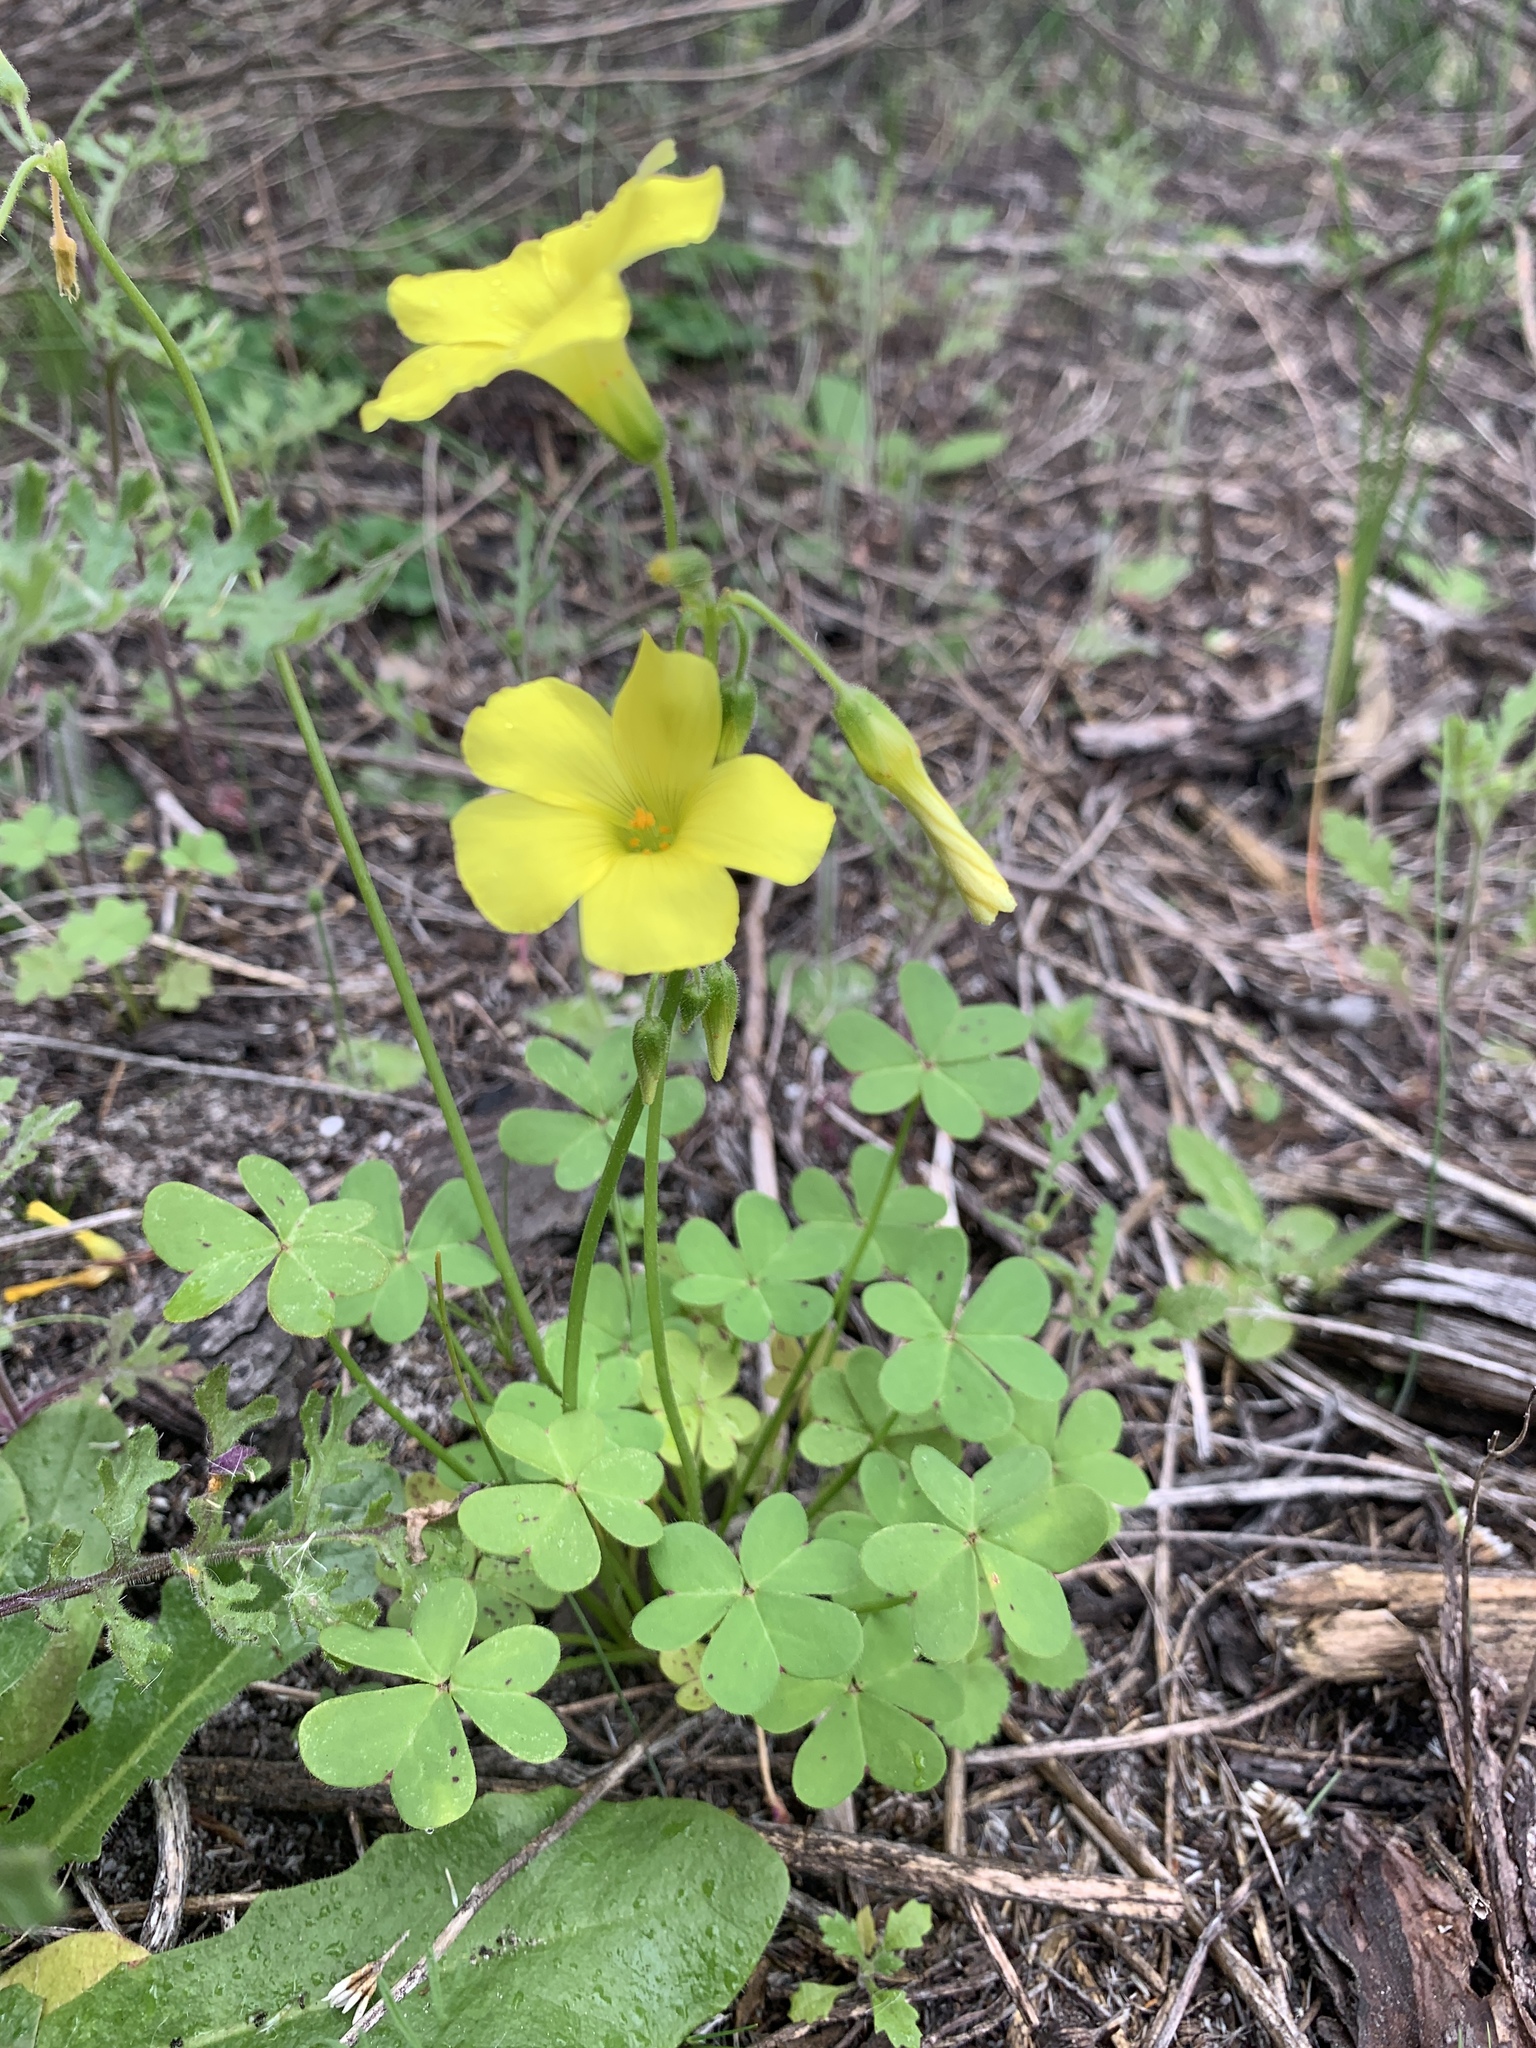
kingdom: Plantae
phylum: Tracheophyta
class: Magnoliopsida
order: Oxalidales
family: Oxalidaceae
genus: Oxalis
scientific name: Oxalis pes-caprae
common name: Bermuda-buttercup
